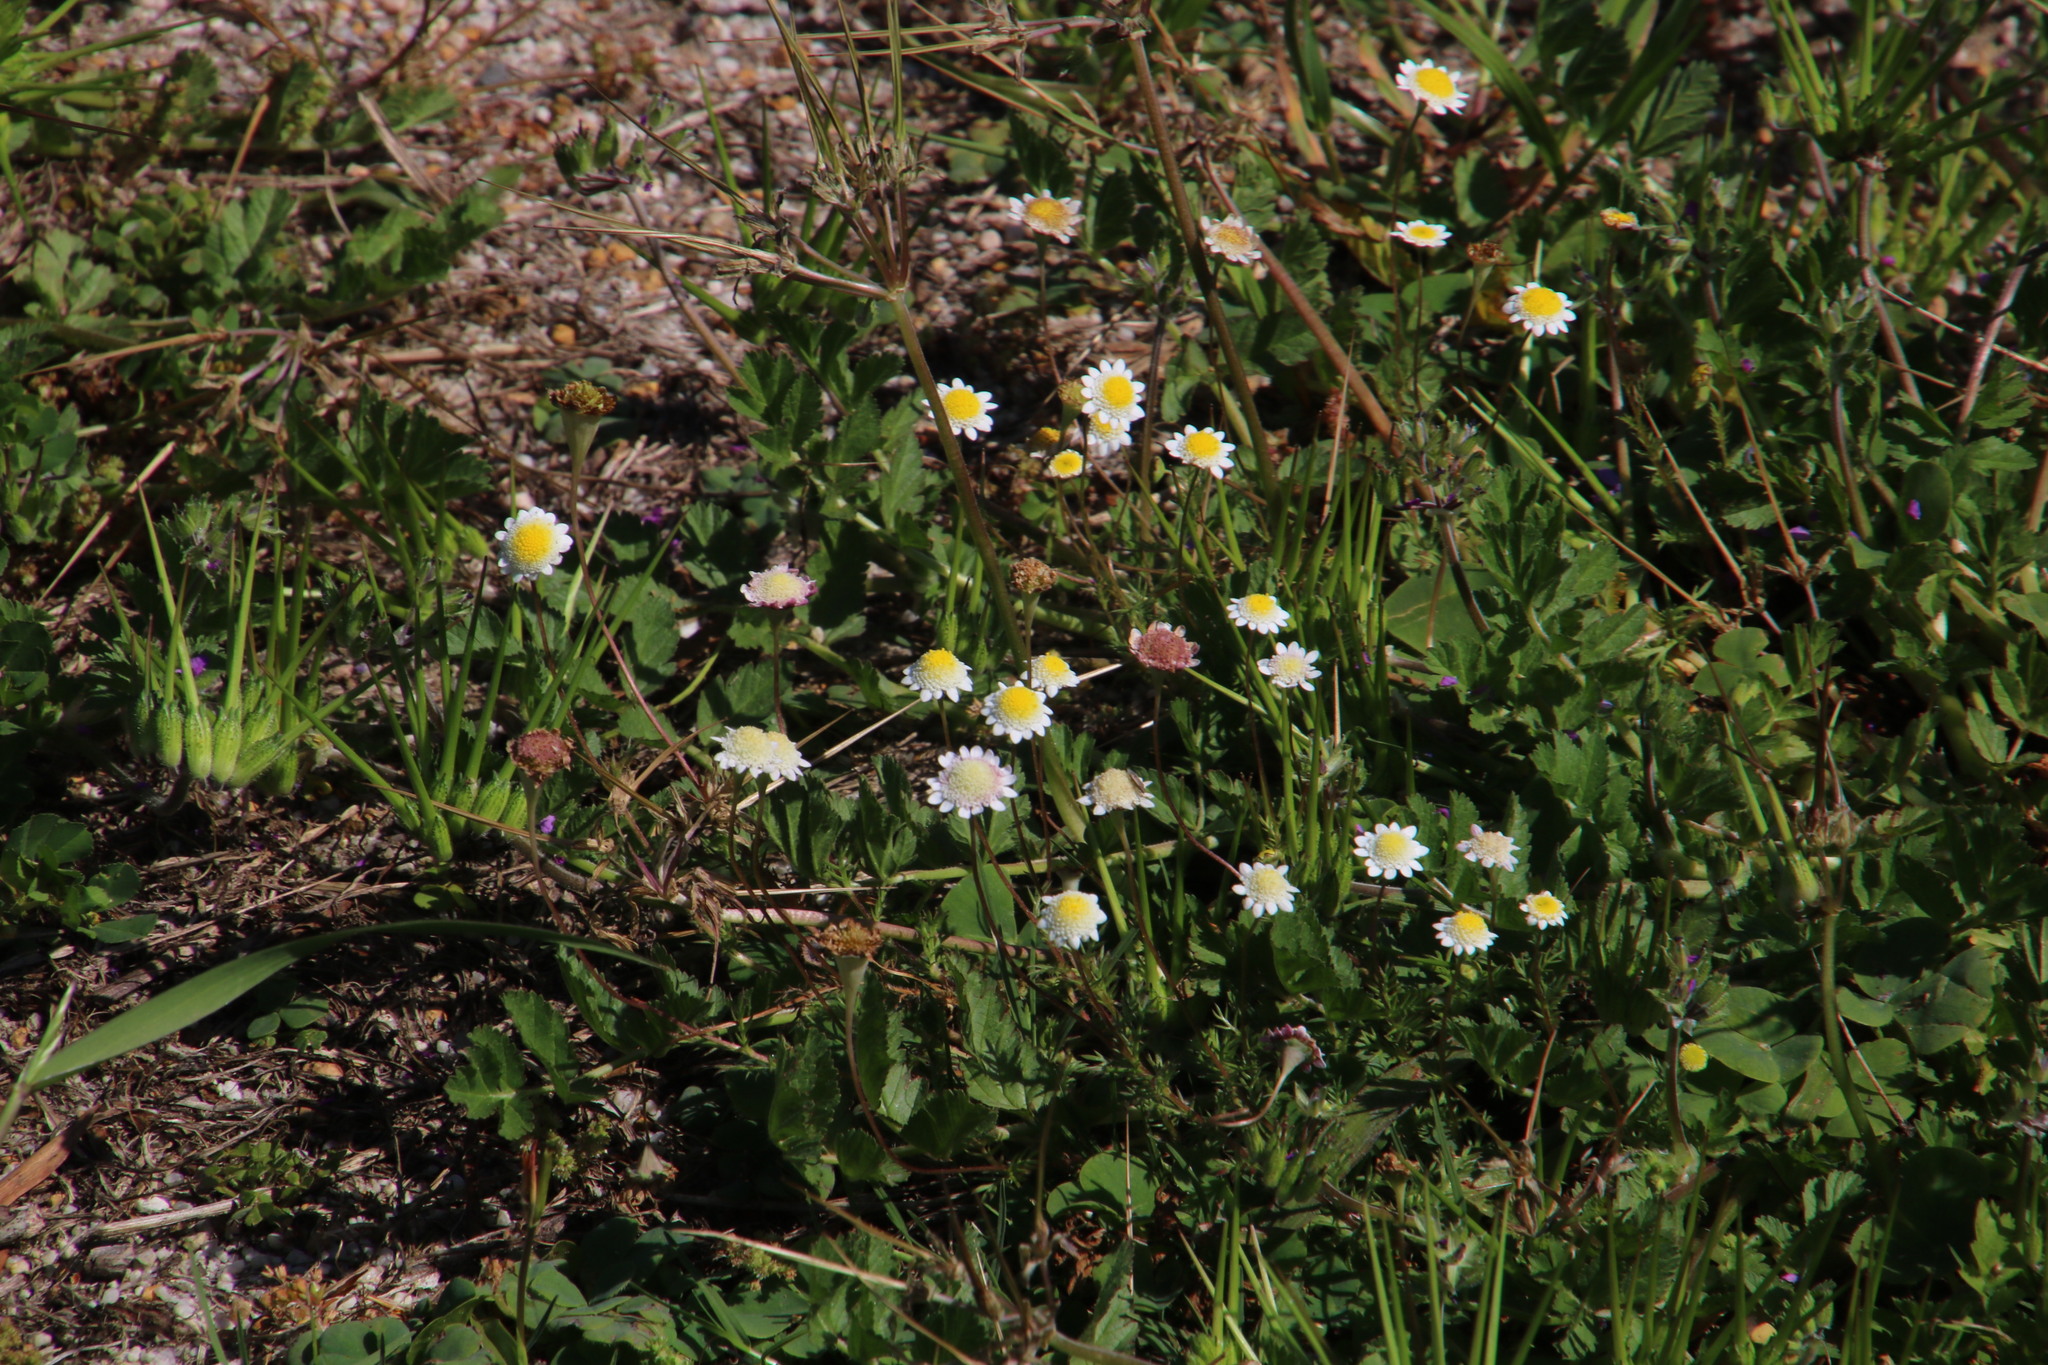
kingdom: Plantae
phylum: Tracheophyta
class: Magnoliopsida
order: Asterales
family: Asteraceae
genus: Cotula
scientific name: Cotula turbinata
